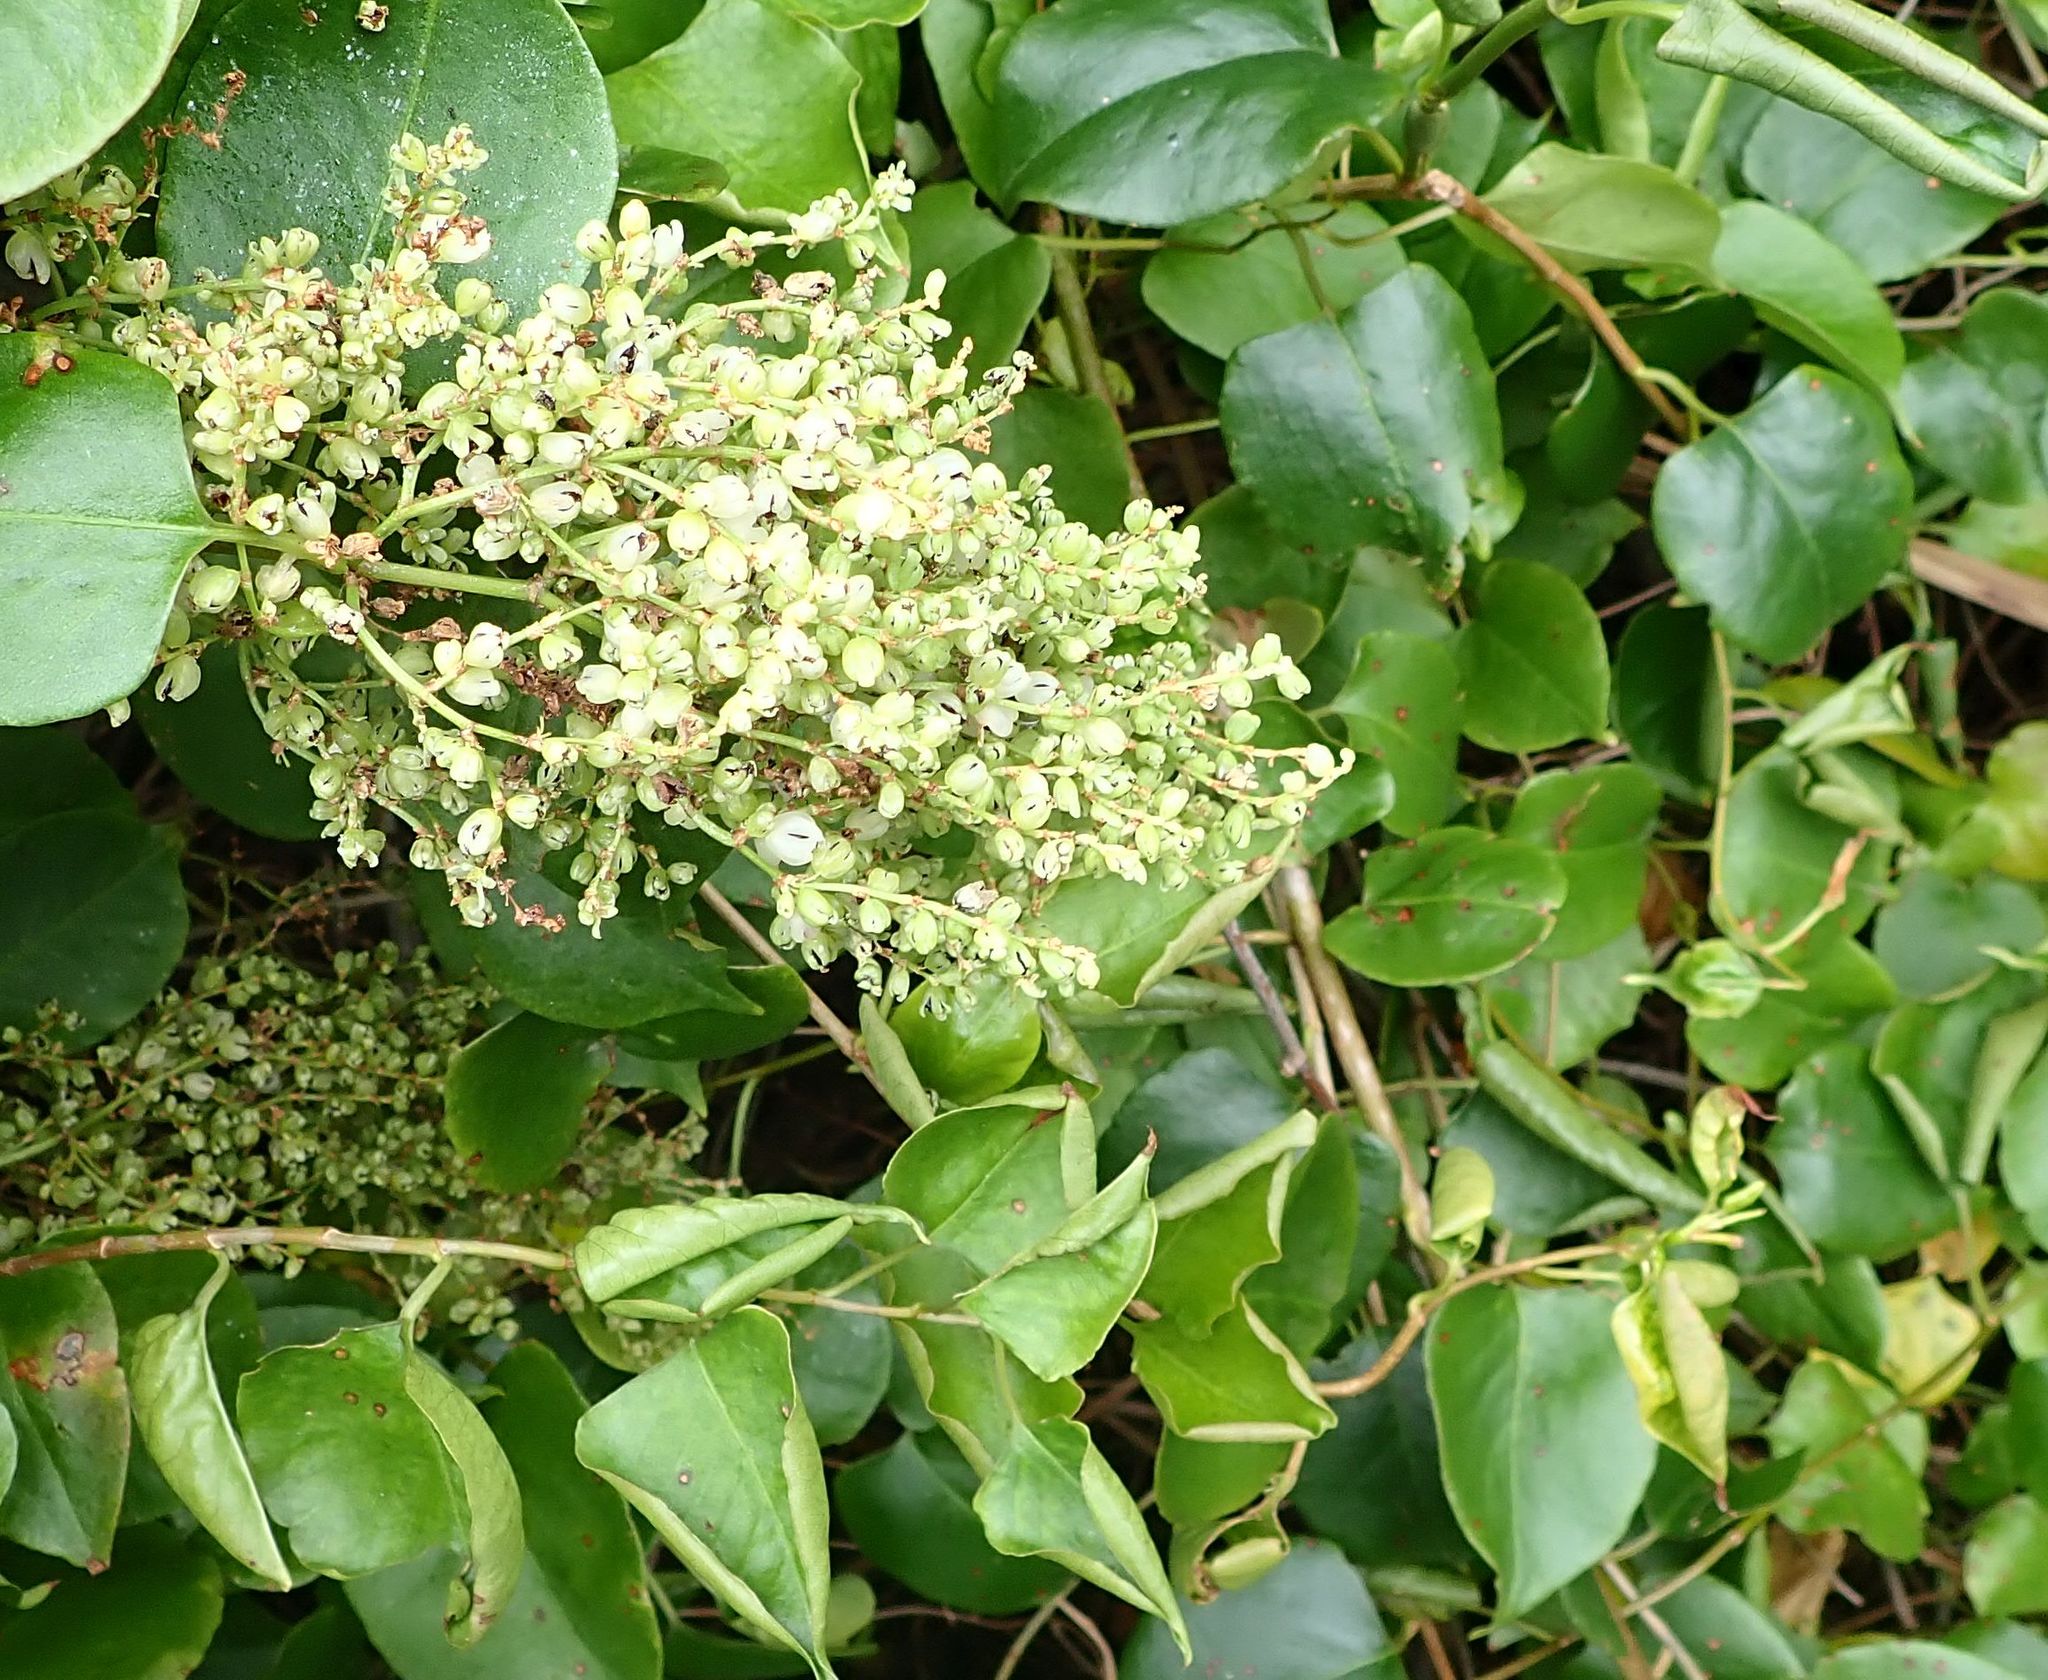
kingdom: Plantae
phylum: Tracheophyta
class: Magnoliopsida
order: Caryophyllales
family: Polygonaceae
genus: Muehlenbeckia
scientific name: Muehlenbeckia australis
